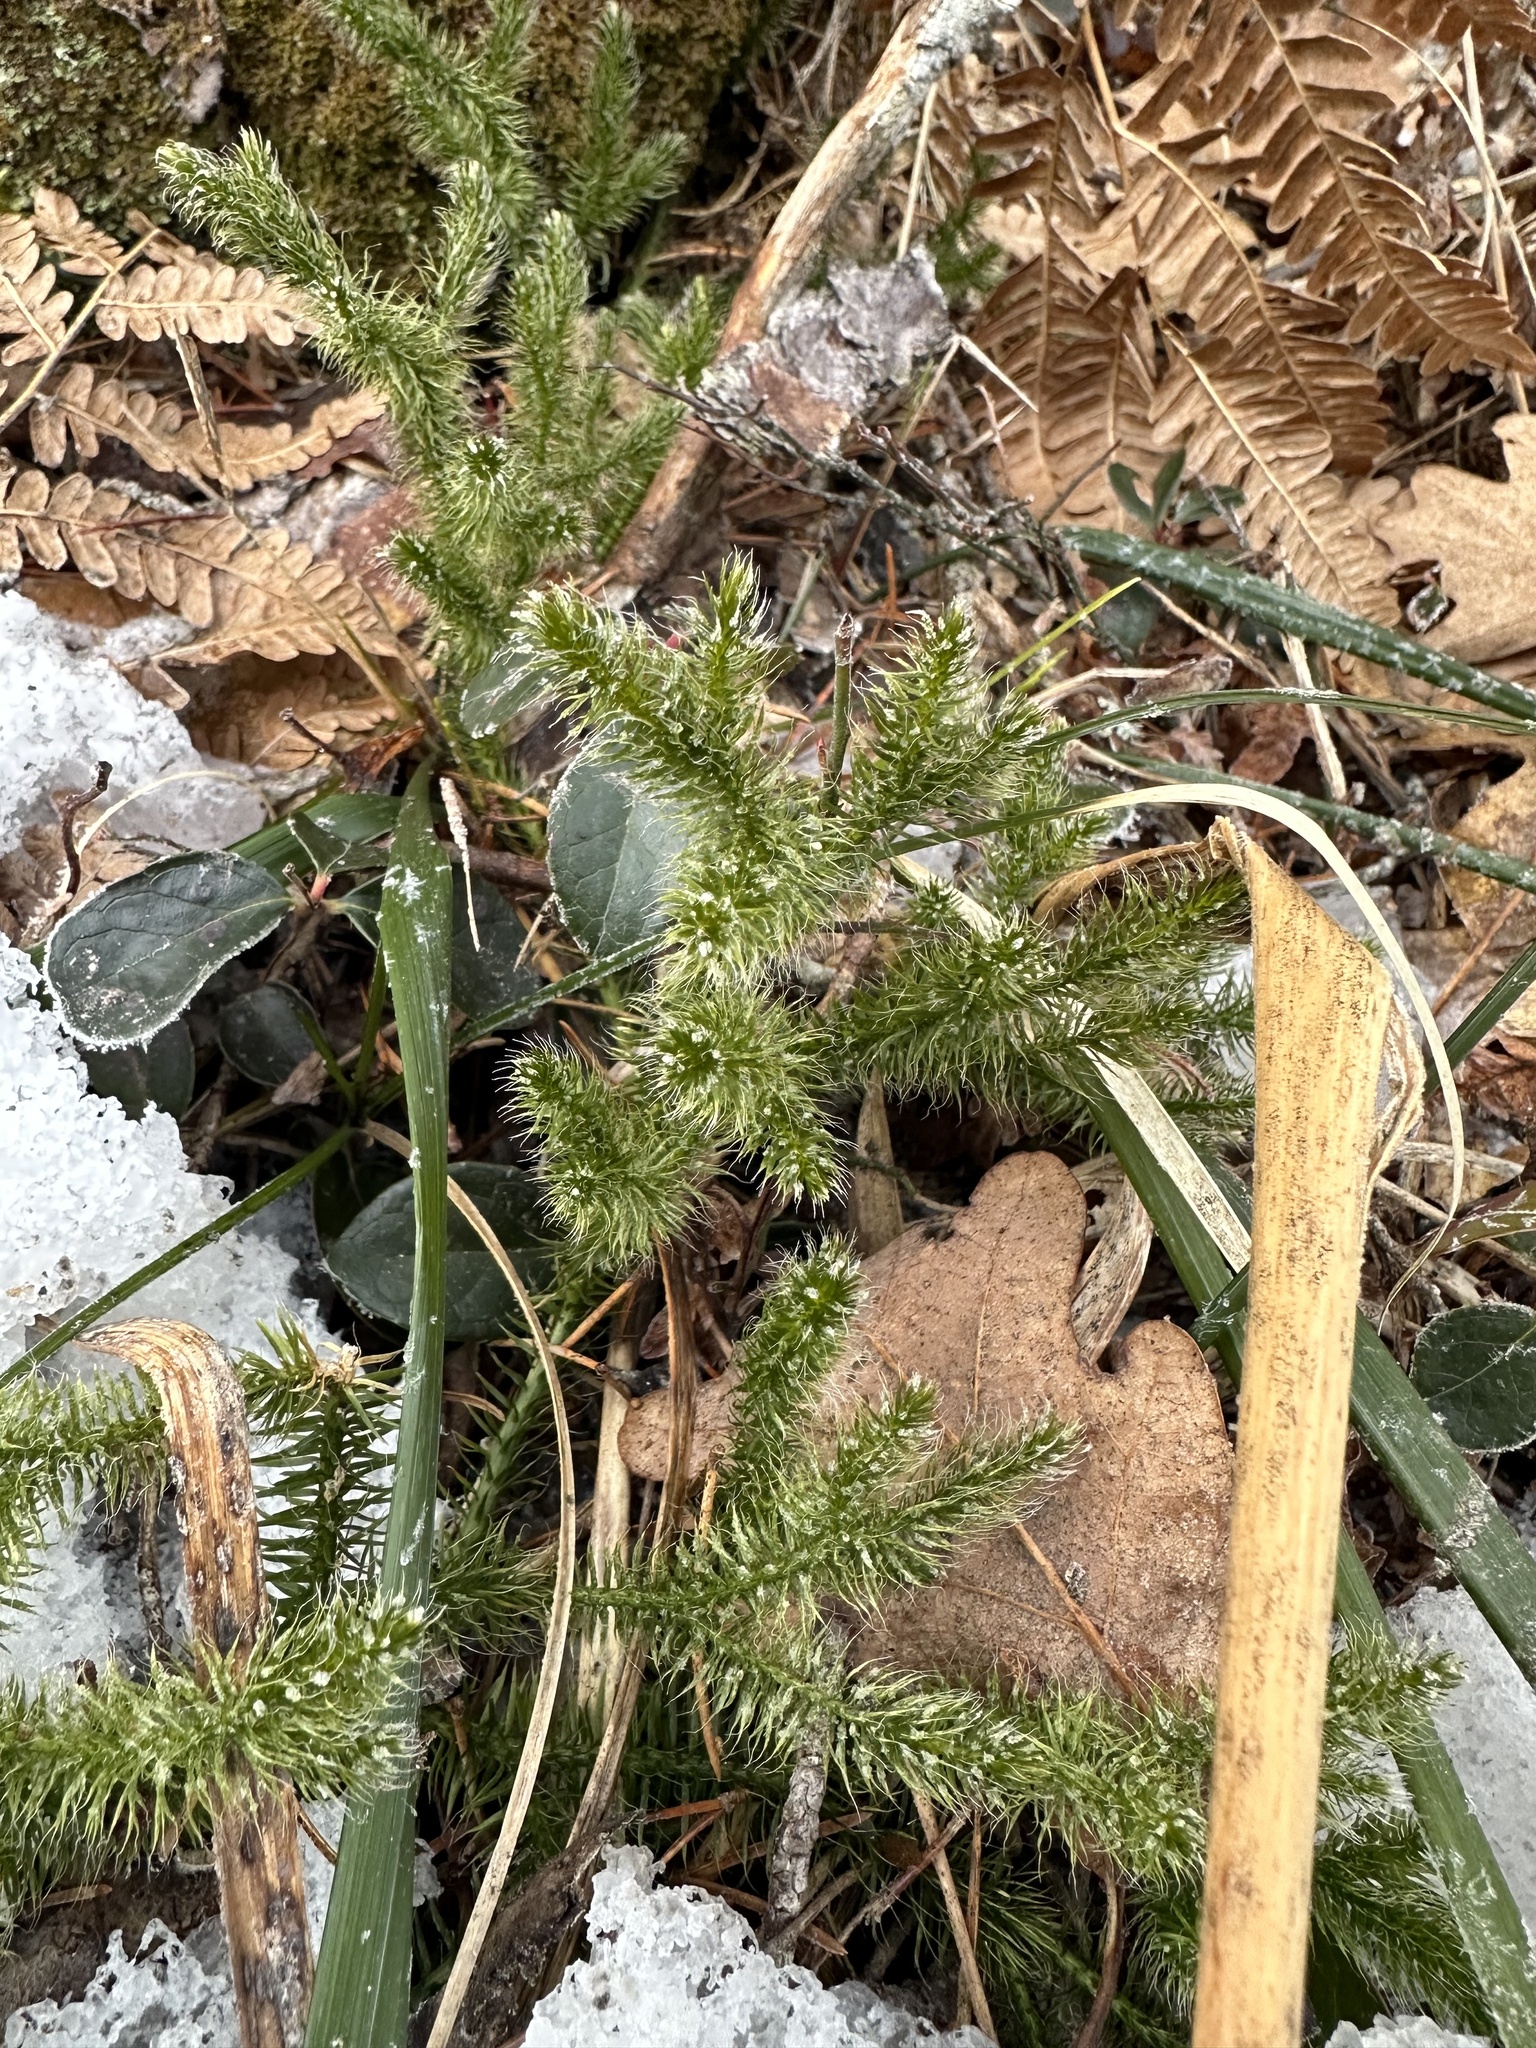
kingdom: Plantae
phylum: Tracheophyta
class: Lycopodiopsida
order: Lycopodiales
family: Lycopodiaceae
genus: Lycopodium
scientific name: Lycopodium clavatum
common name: Stag's-horn clubmoss
